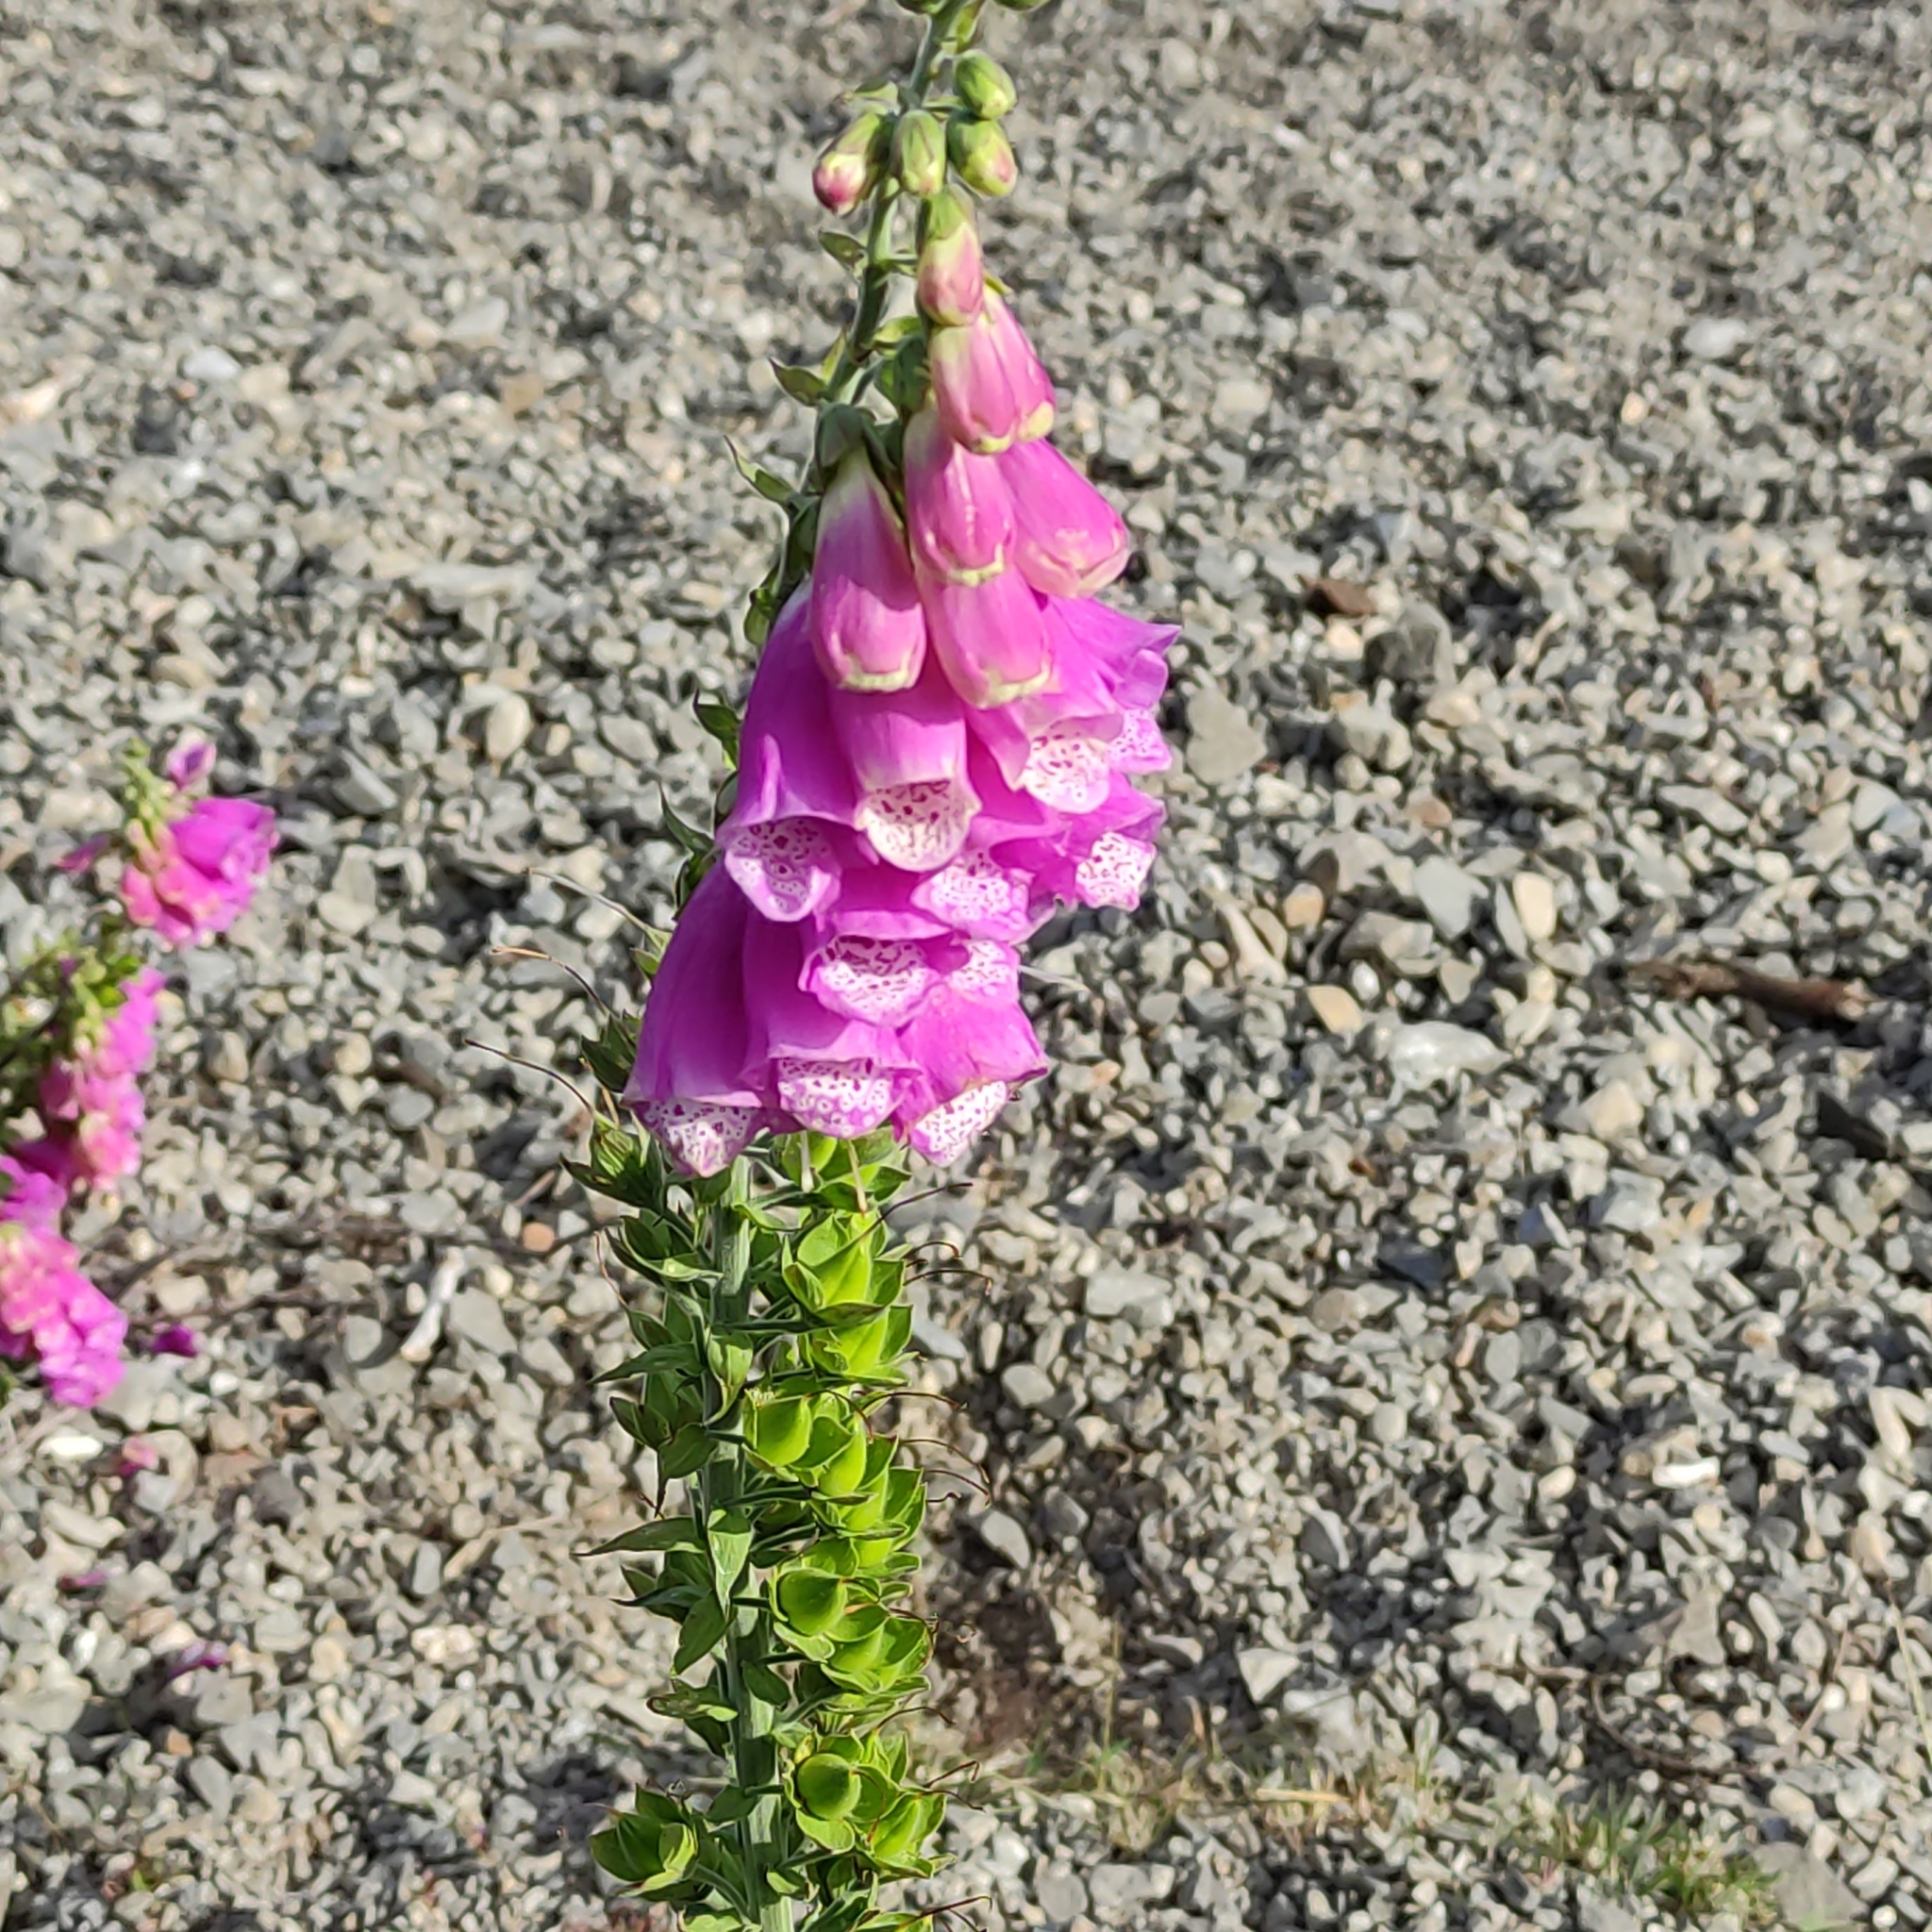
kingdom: Plantae
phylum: Tracheophyta
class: Magnoliopsida
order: Lamiales
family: Plantaginaceae
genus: Digitalis
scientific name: Digitalis purpurea
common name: Foxglove
